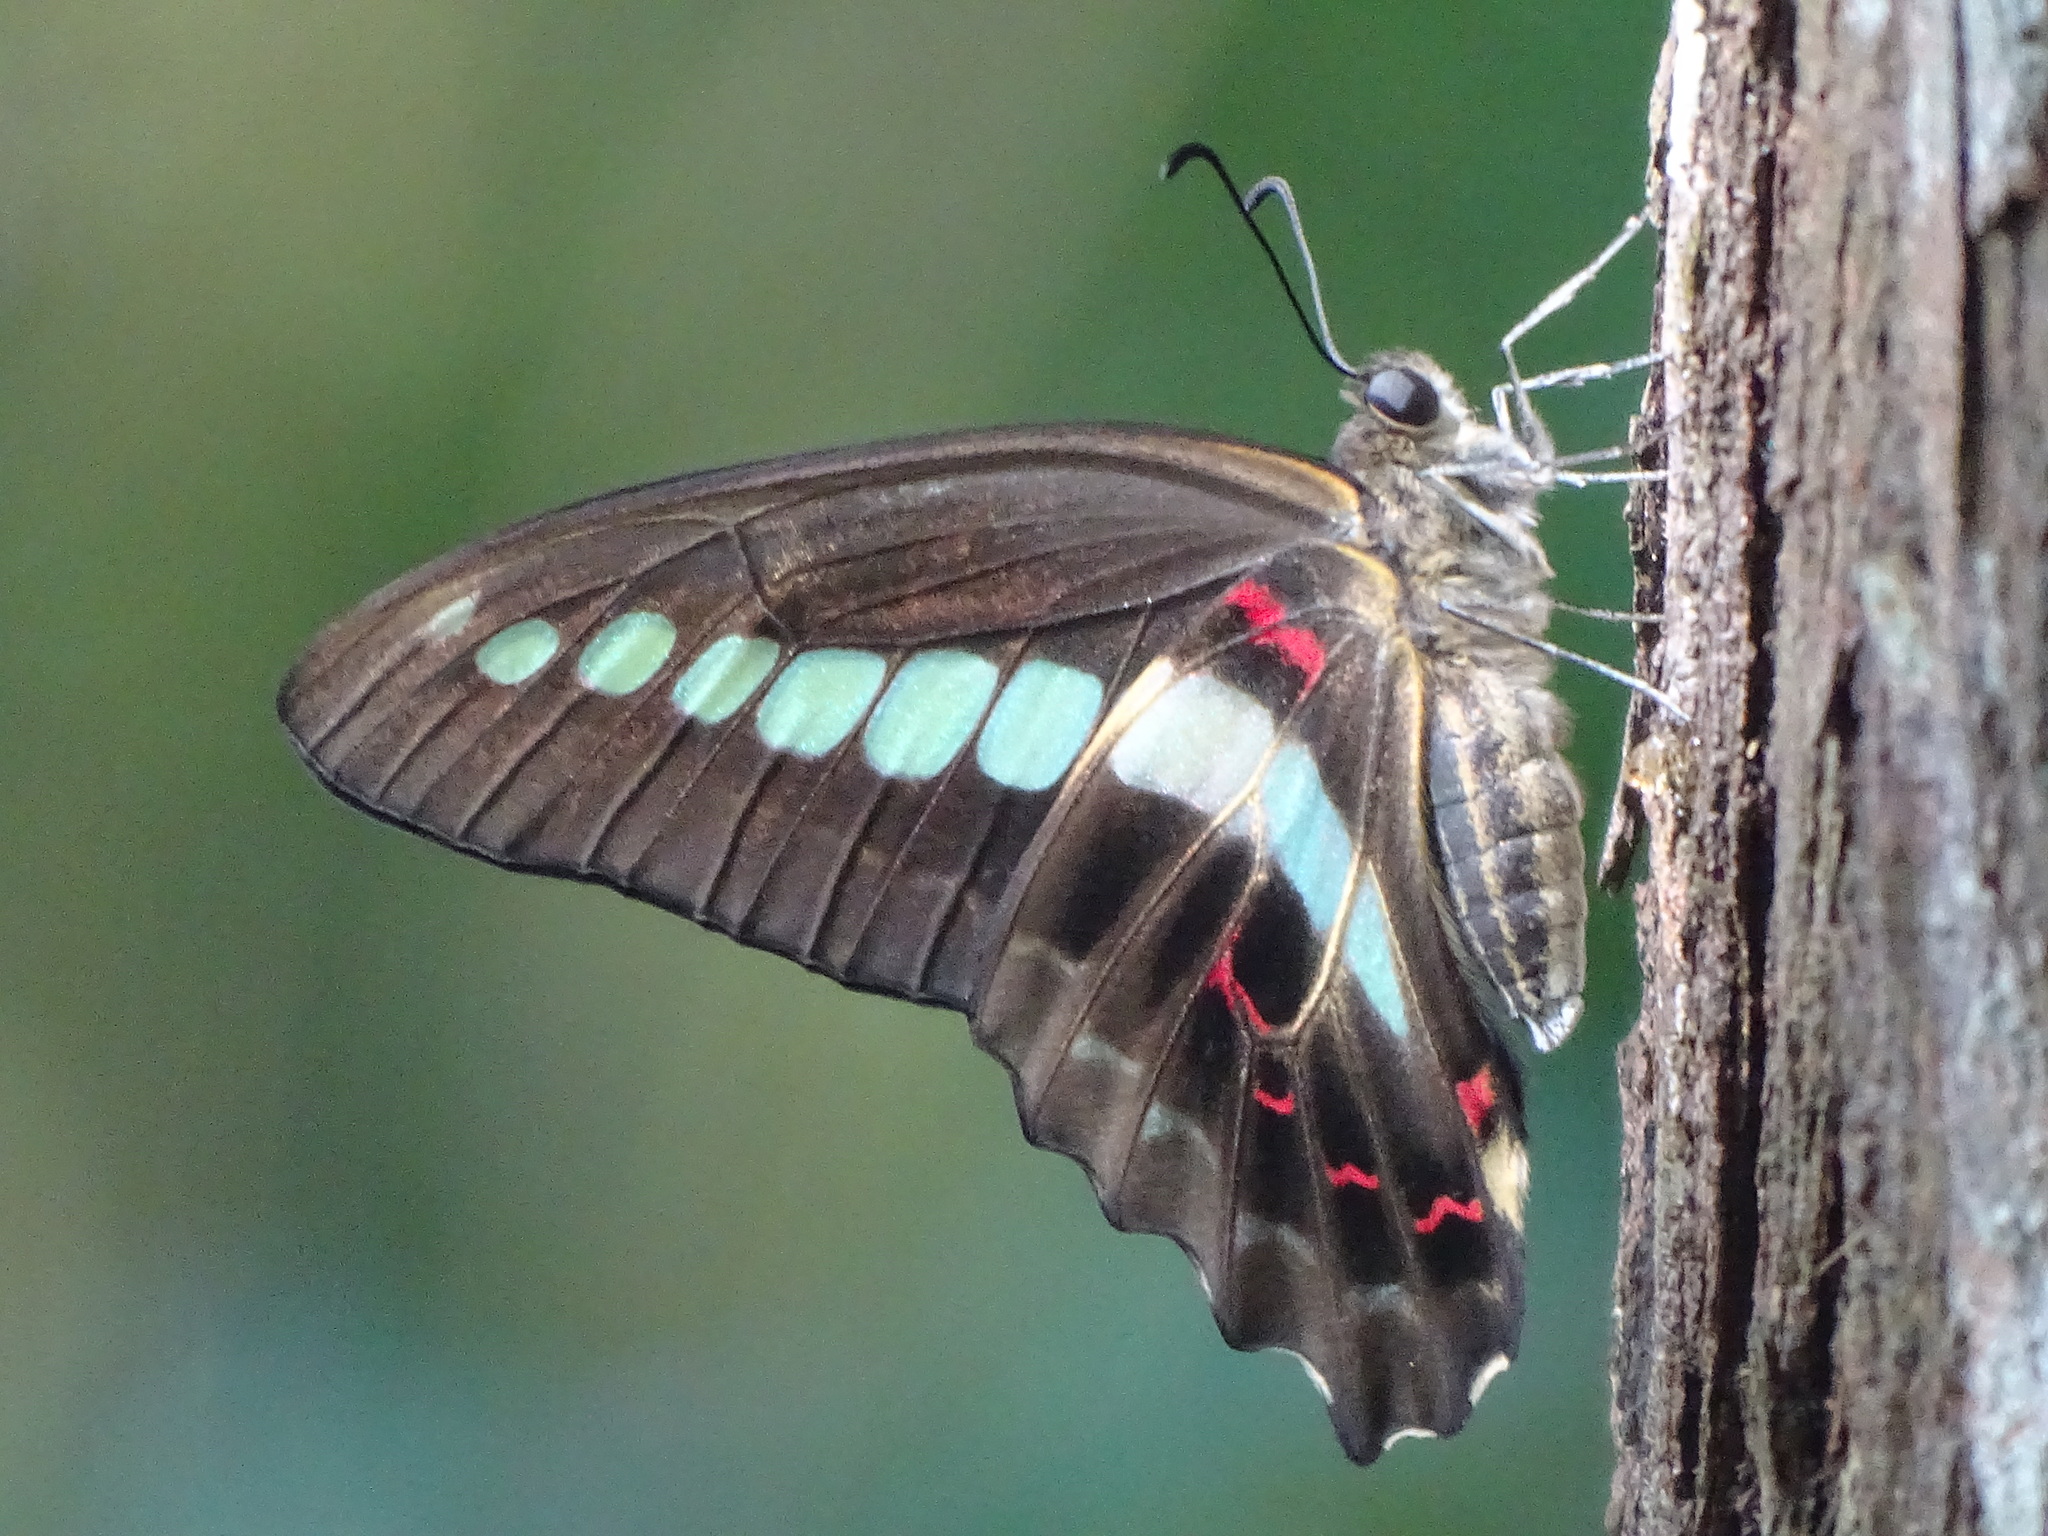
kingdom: Fungi
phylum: Ascomycota
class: Sordariomycetes
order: Microascales
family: Microascaceae
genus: Graphium
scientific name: Graphium sarpedon
